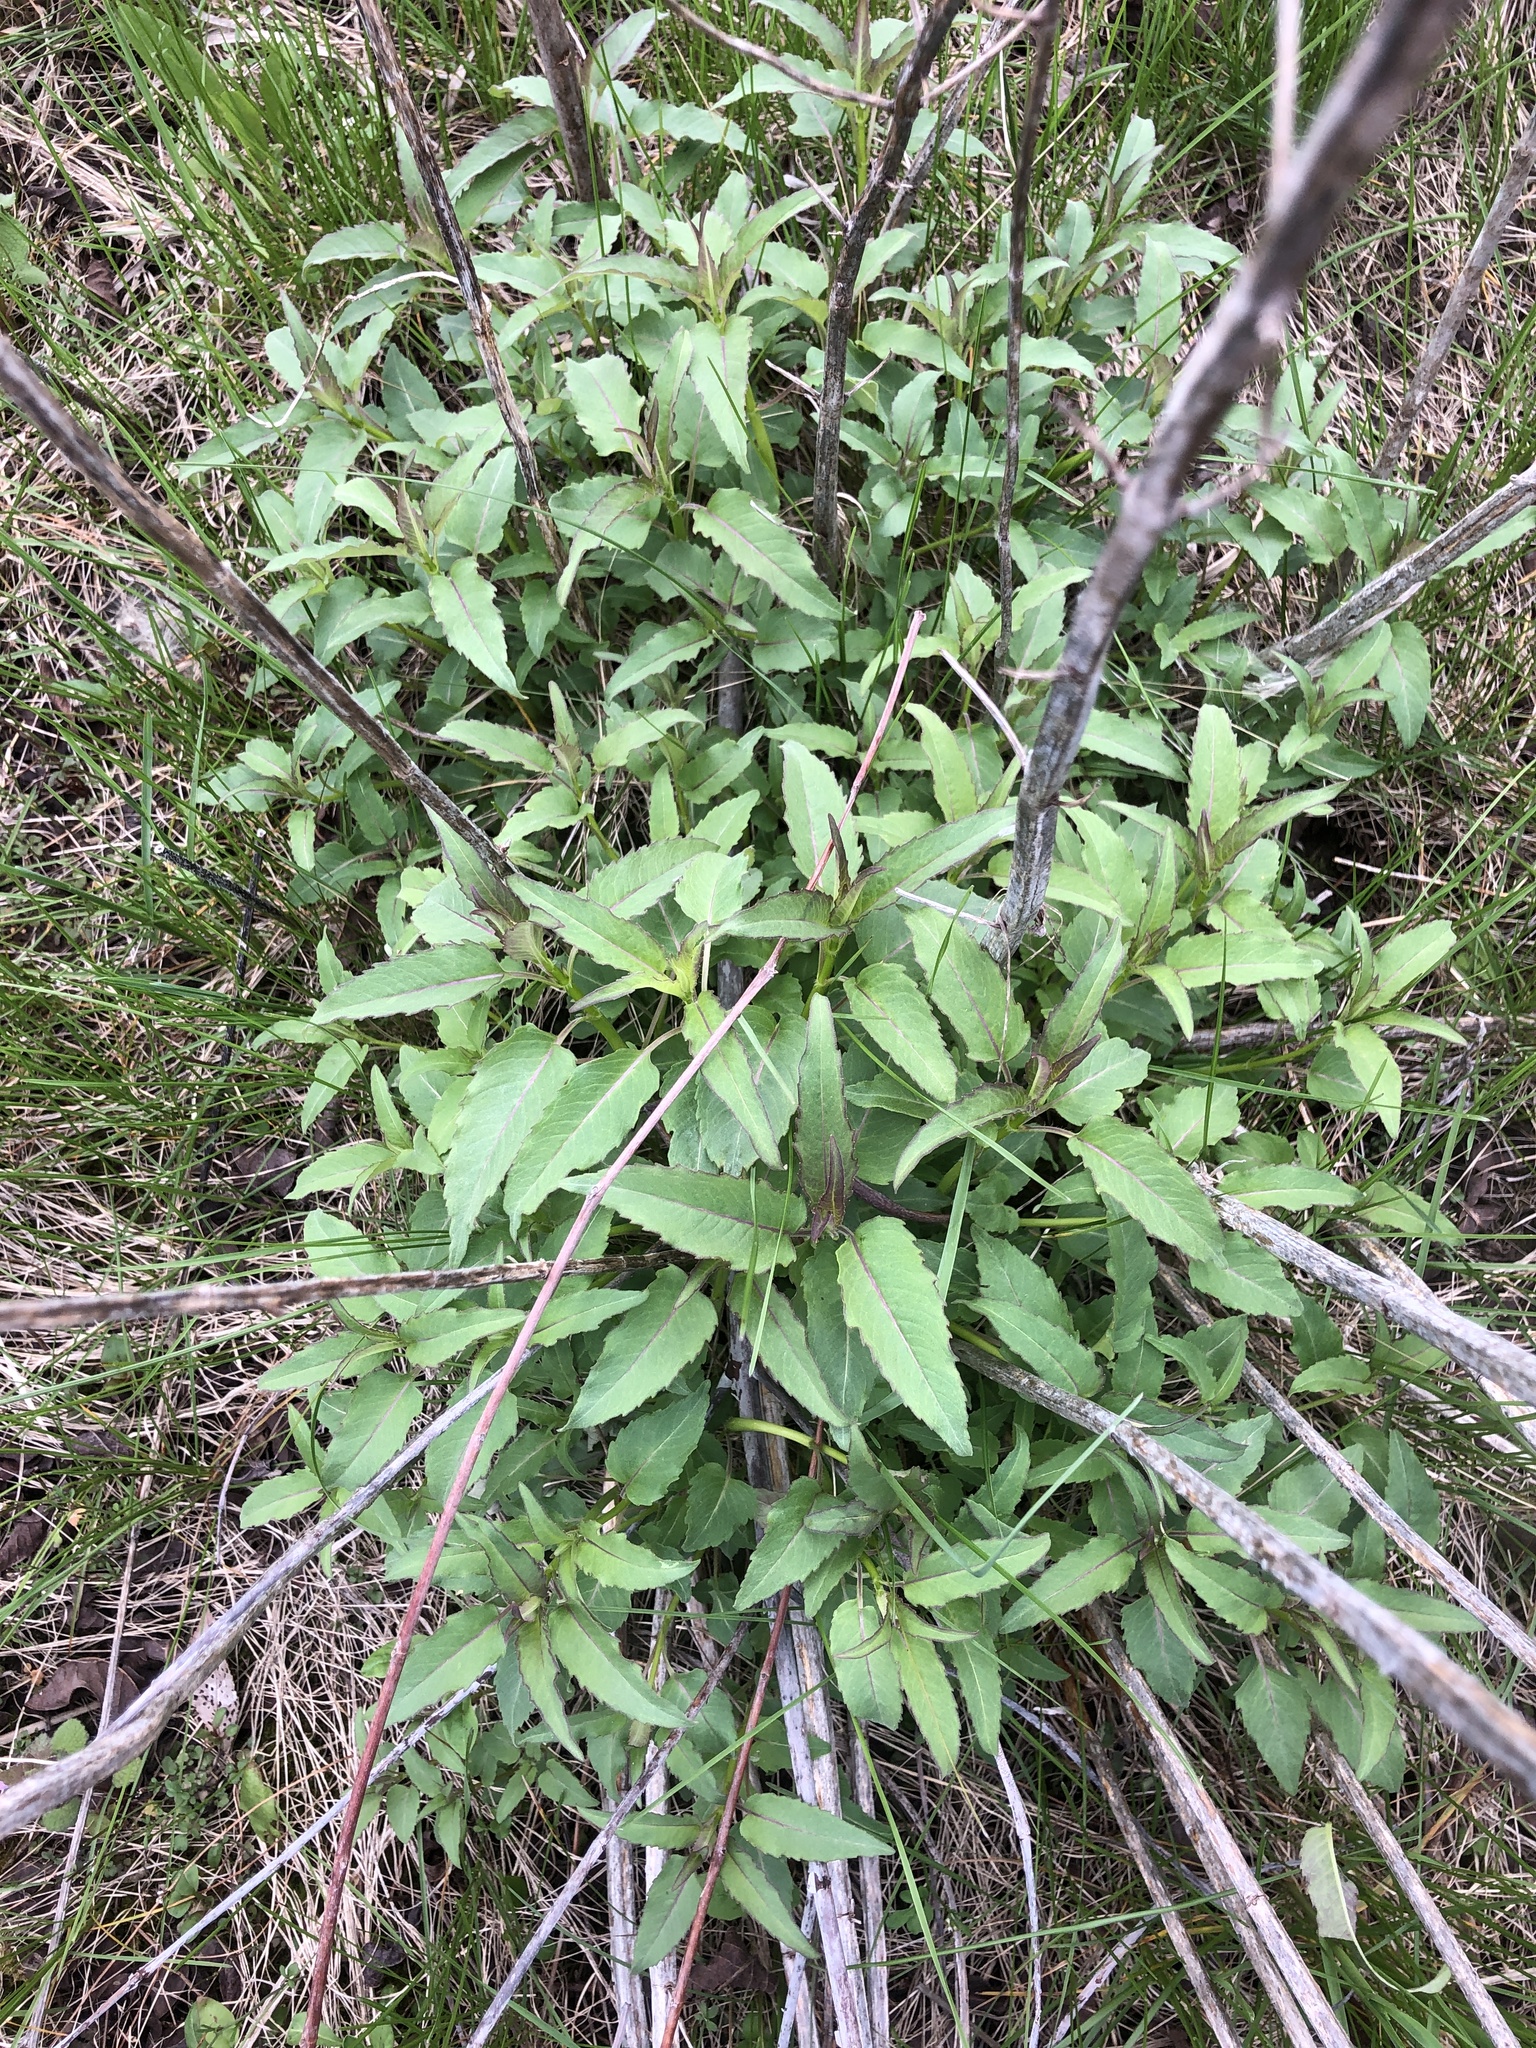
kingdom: Plantae
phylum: Tracheophyta
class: Magnoliopsida
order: Lamiales
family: Lamiaceae
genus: Monarda
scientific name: Monarda fistulosa
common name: Purple beebalm
